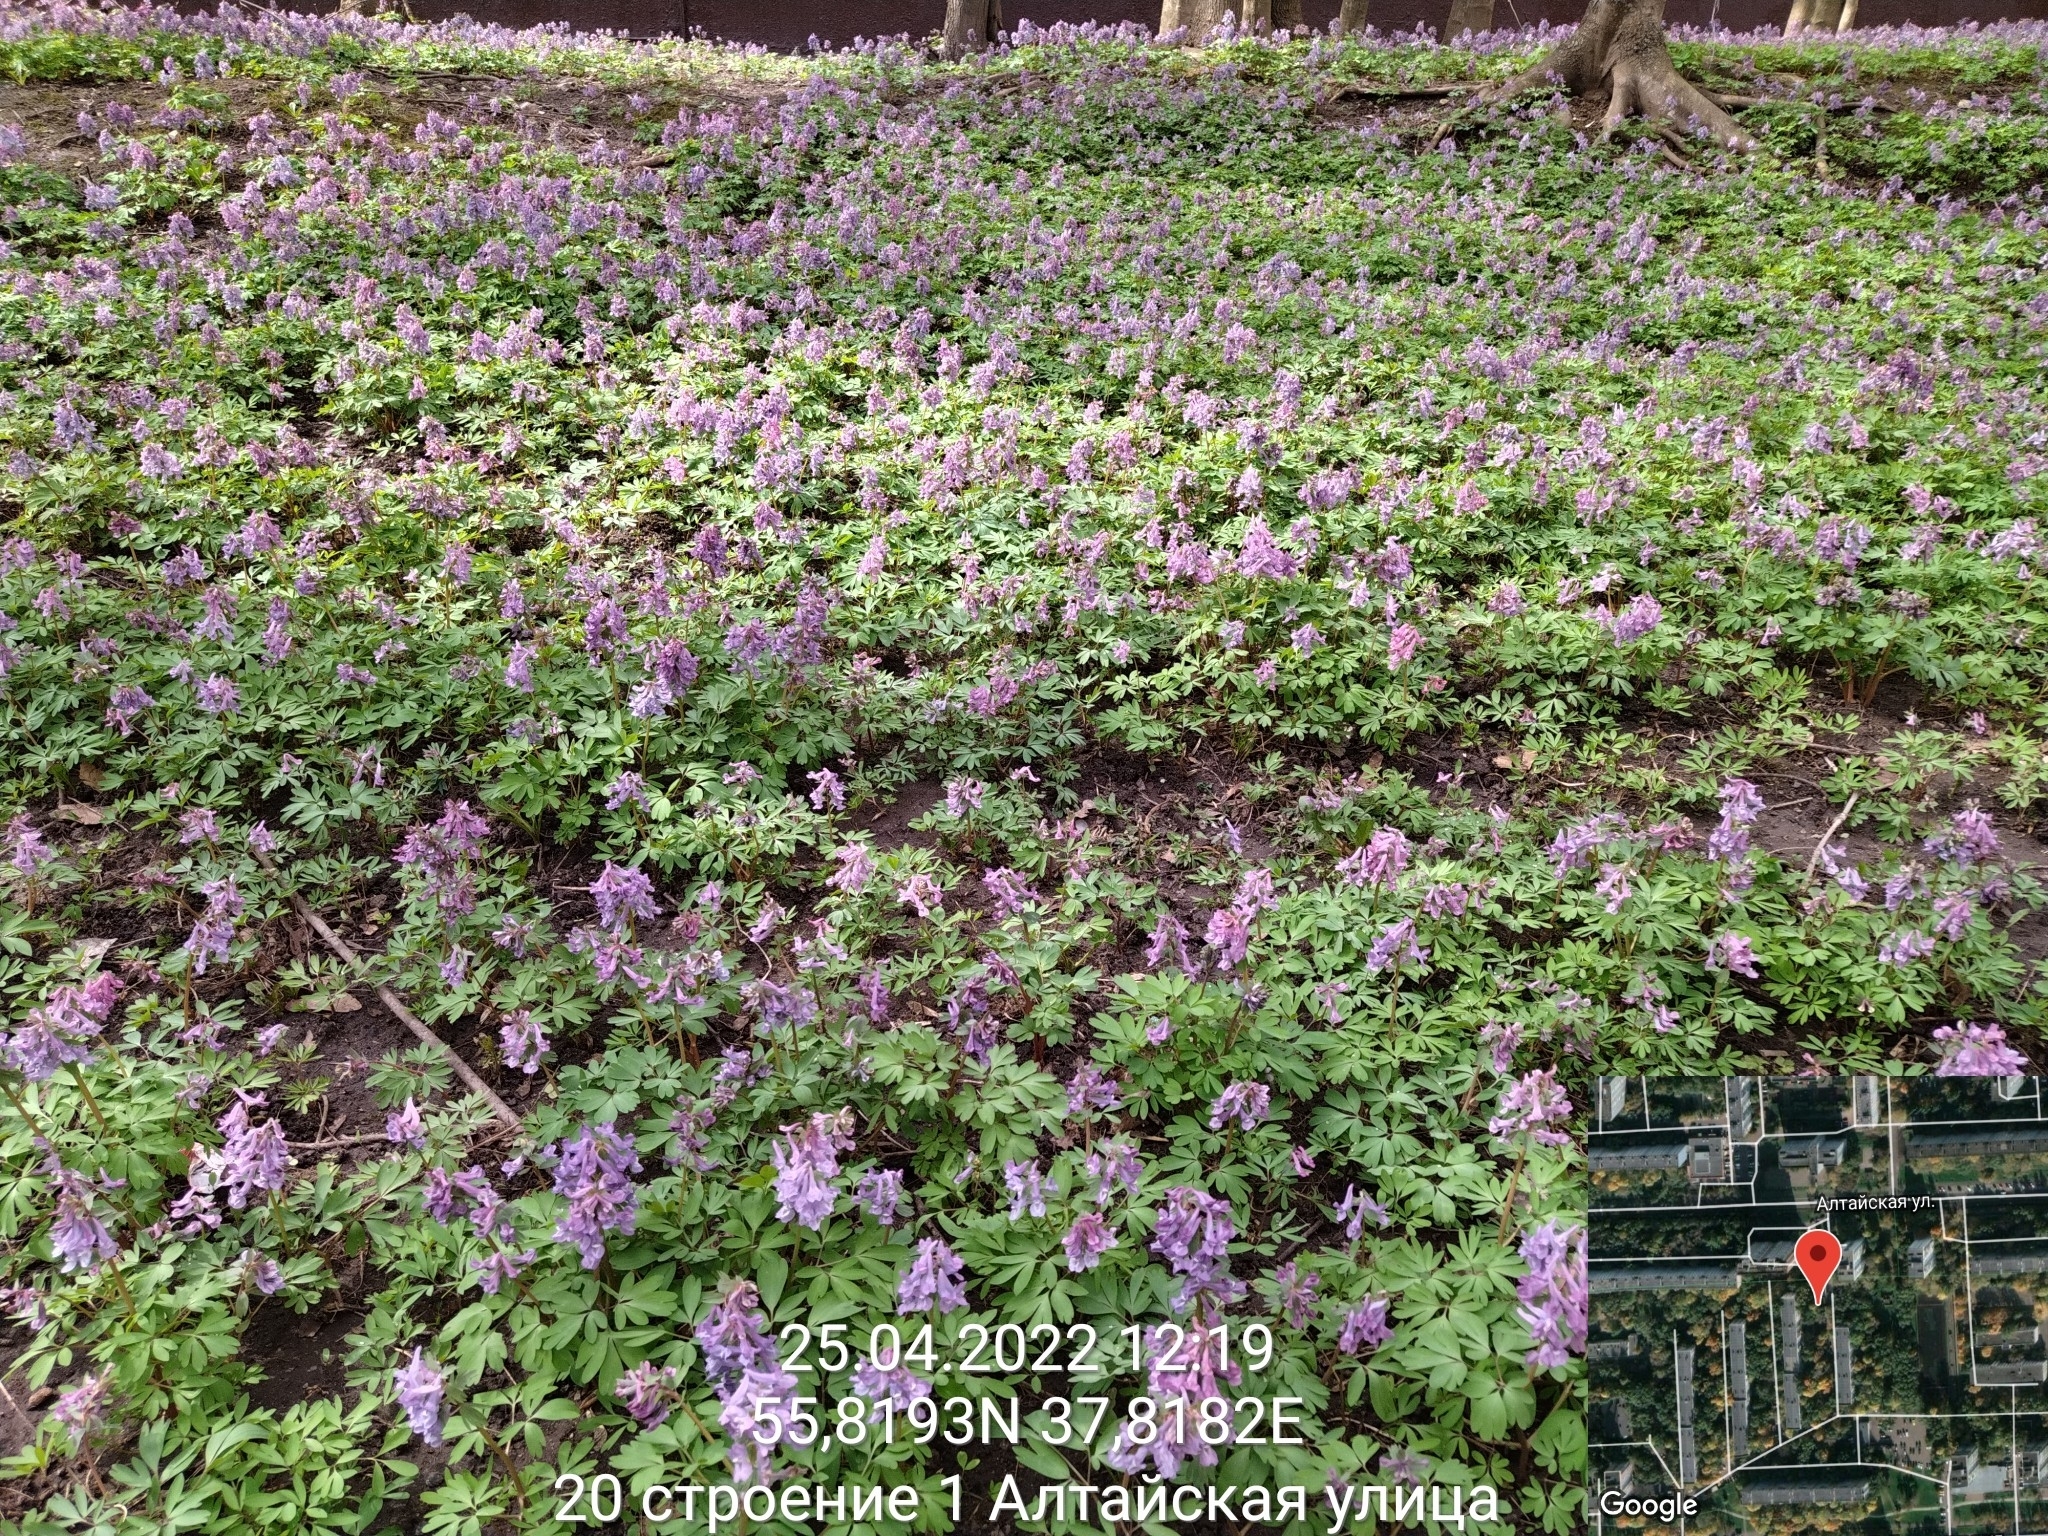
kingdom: Plantae
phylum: Tracheophyta
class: Magnoliopsida
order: Ranunculales
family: Papaveraceae
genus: Corydalis
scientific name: Corydalis solida
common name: Bird-in-a-bush
